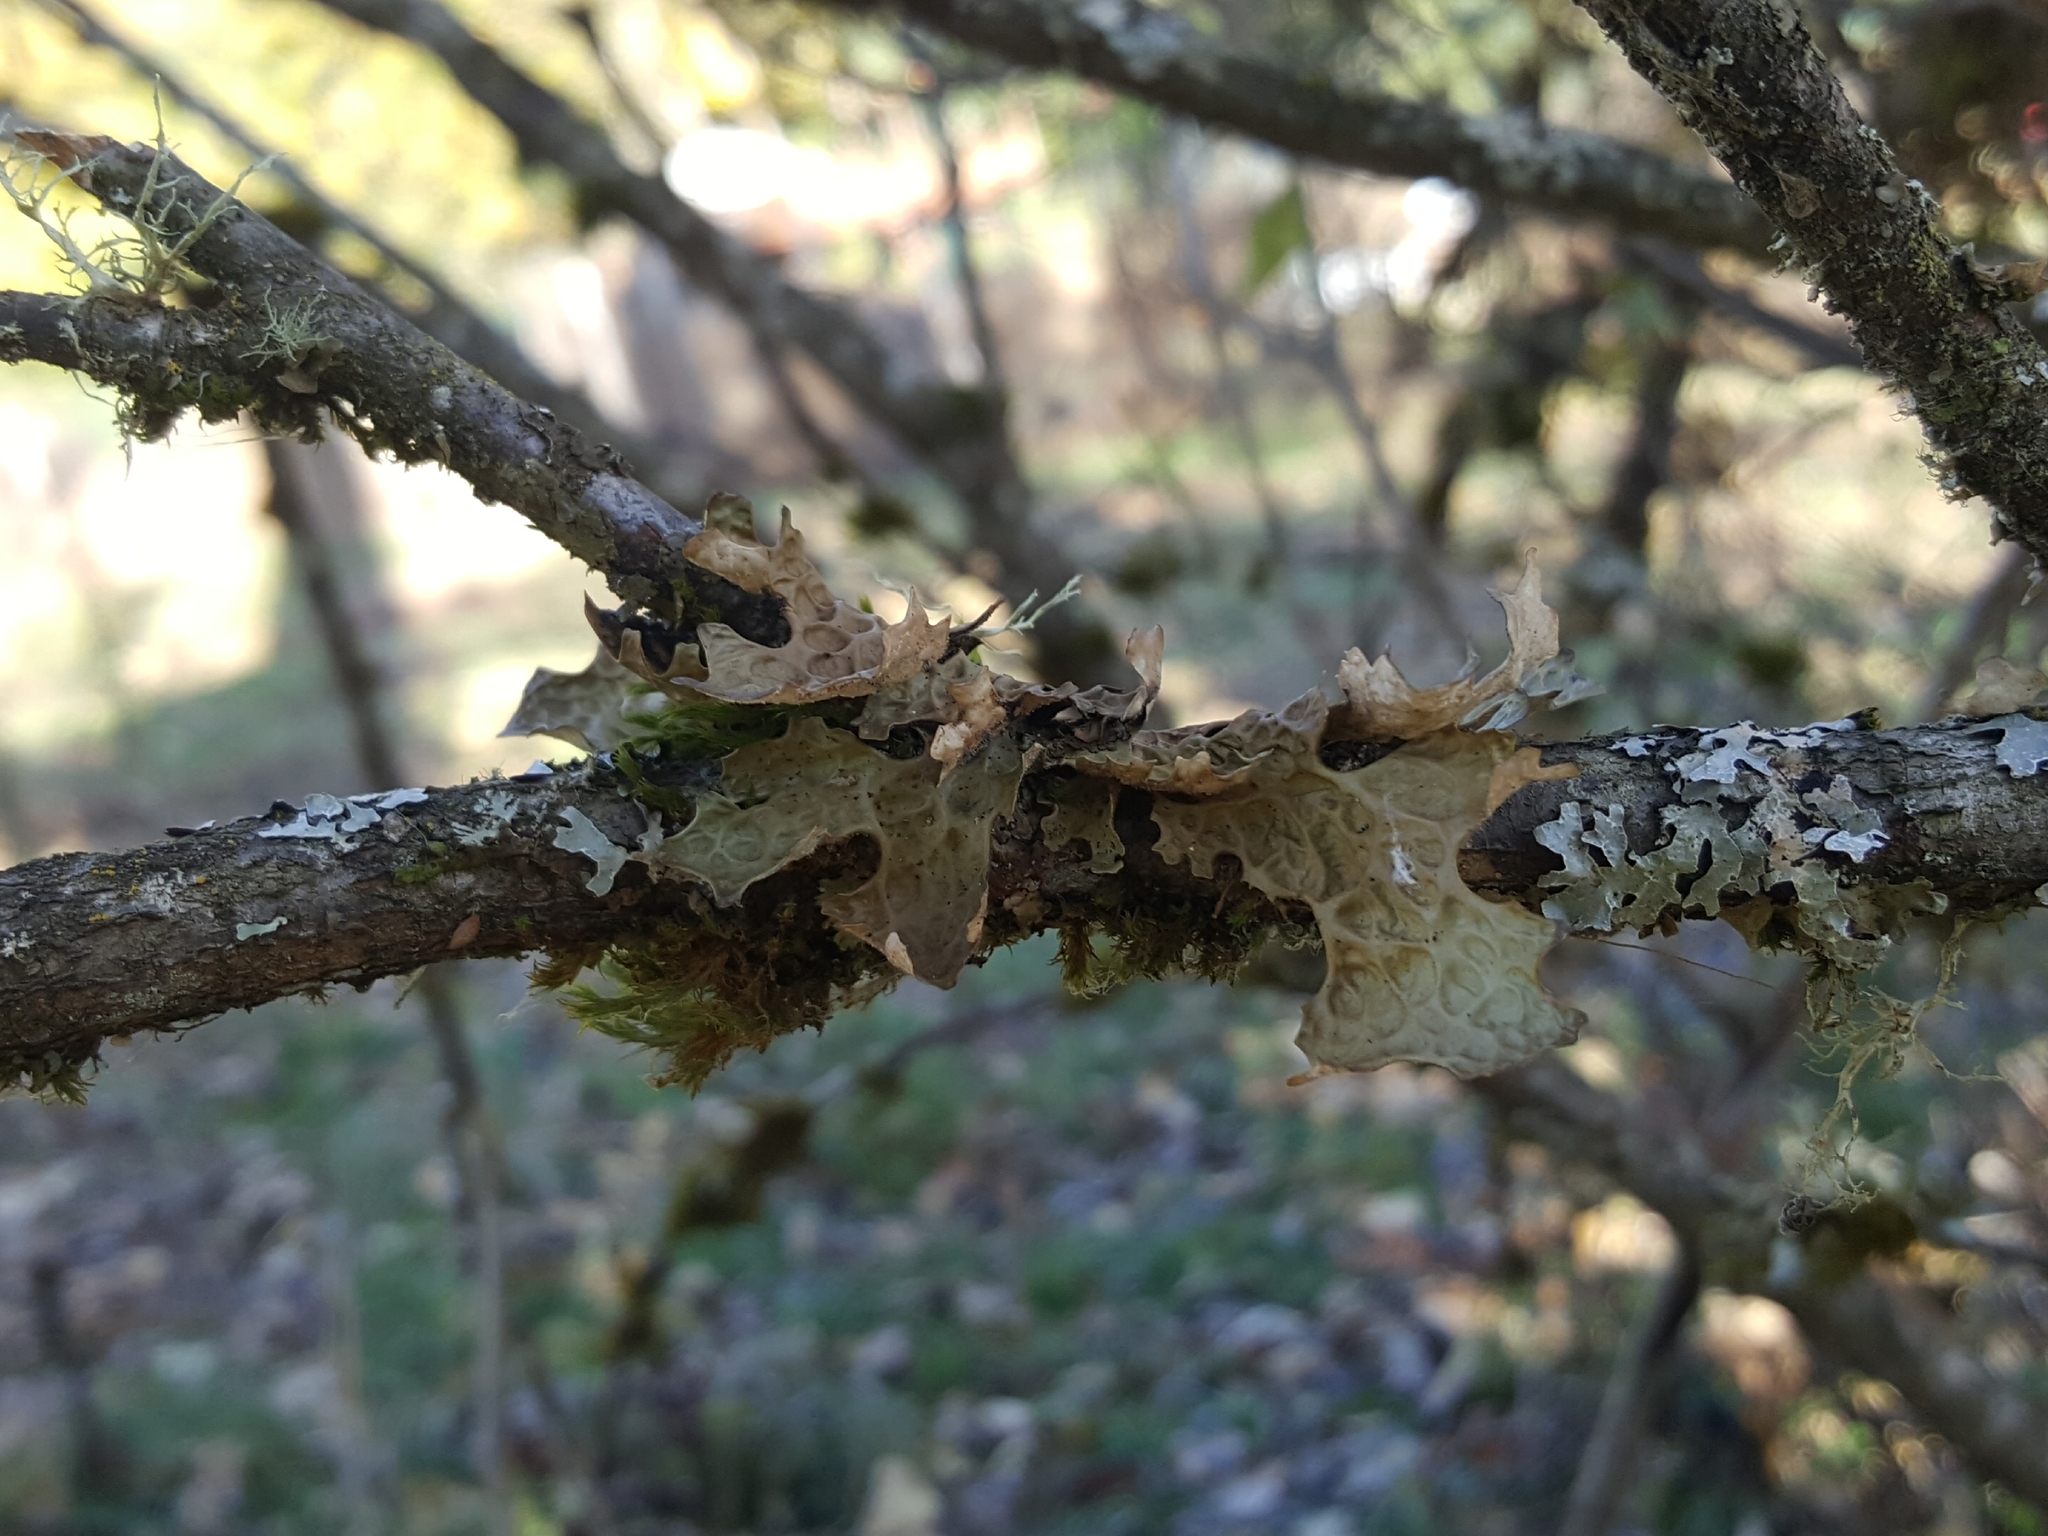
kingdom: Fungi
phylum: Ascomycota
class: Lecanoromycetes
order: Peltigerales
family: Lobariaceae
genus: Lobaria
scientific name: Lobaria pulmonaria
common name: Lungwort
